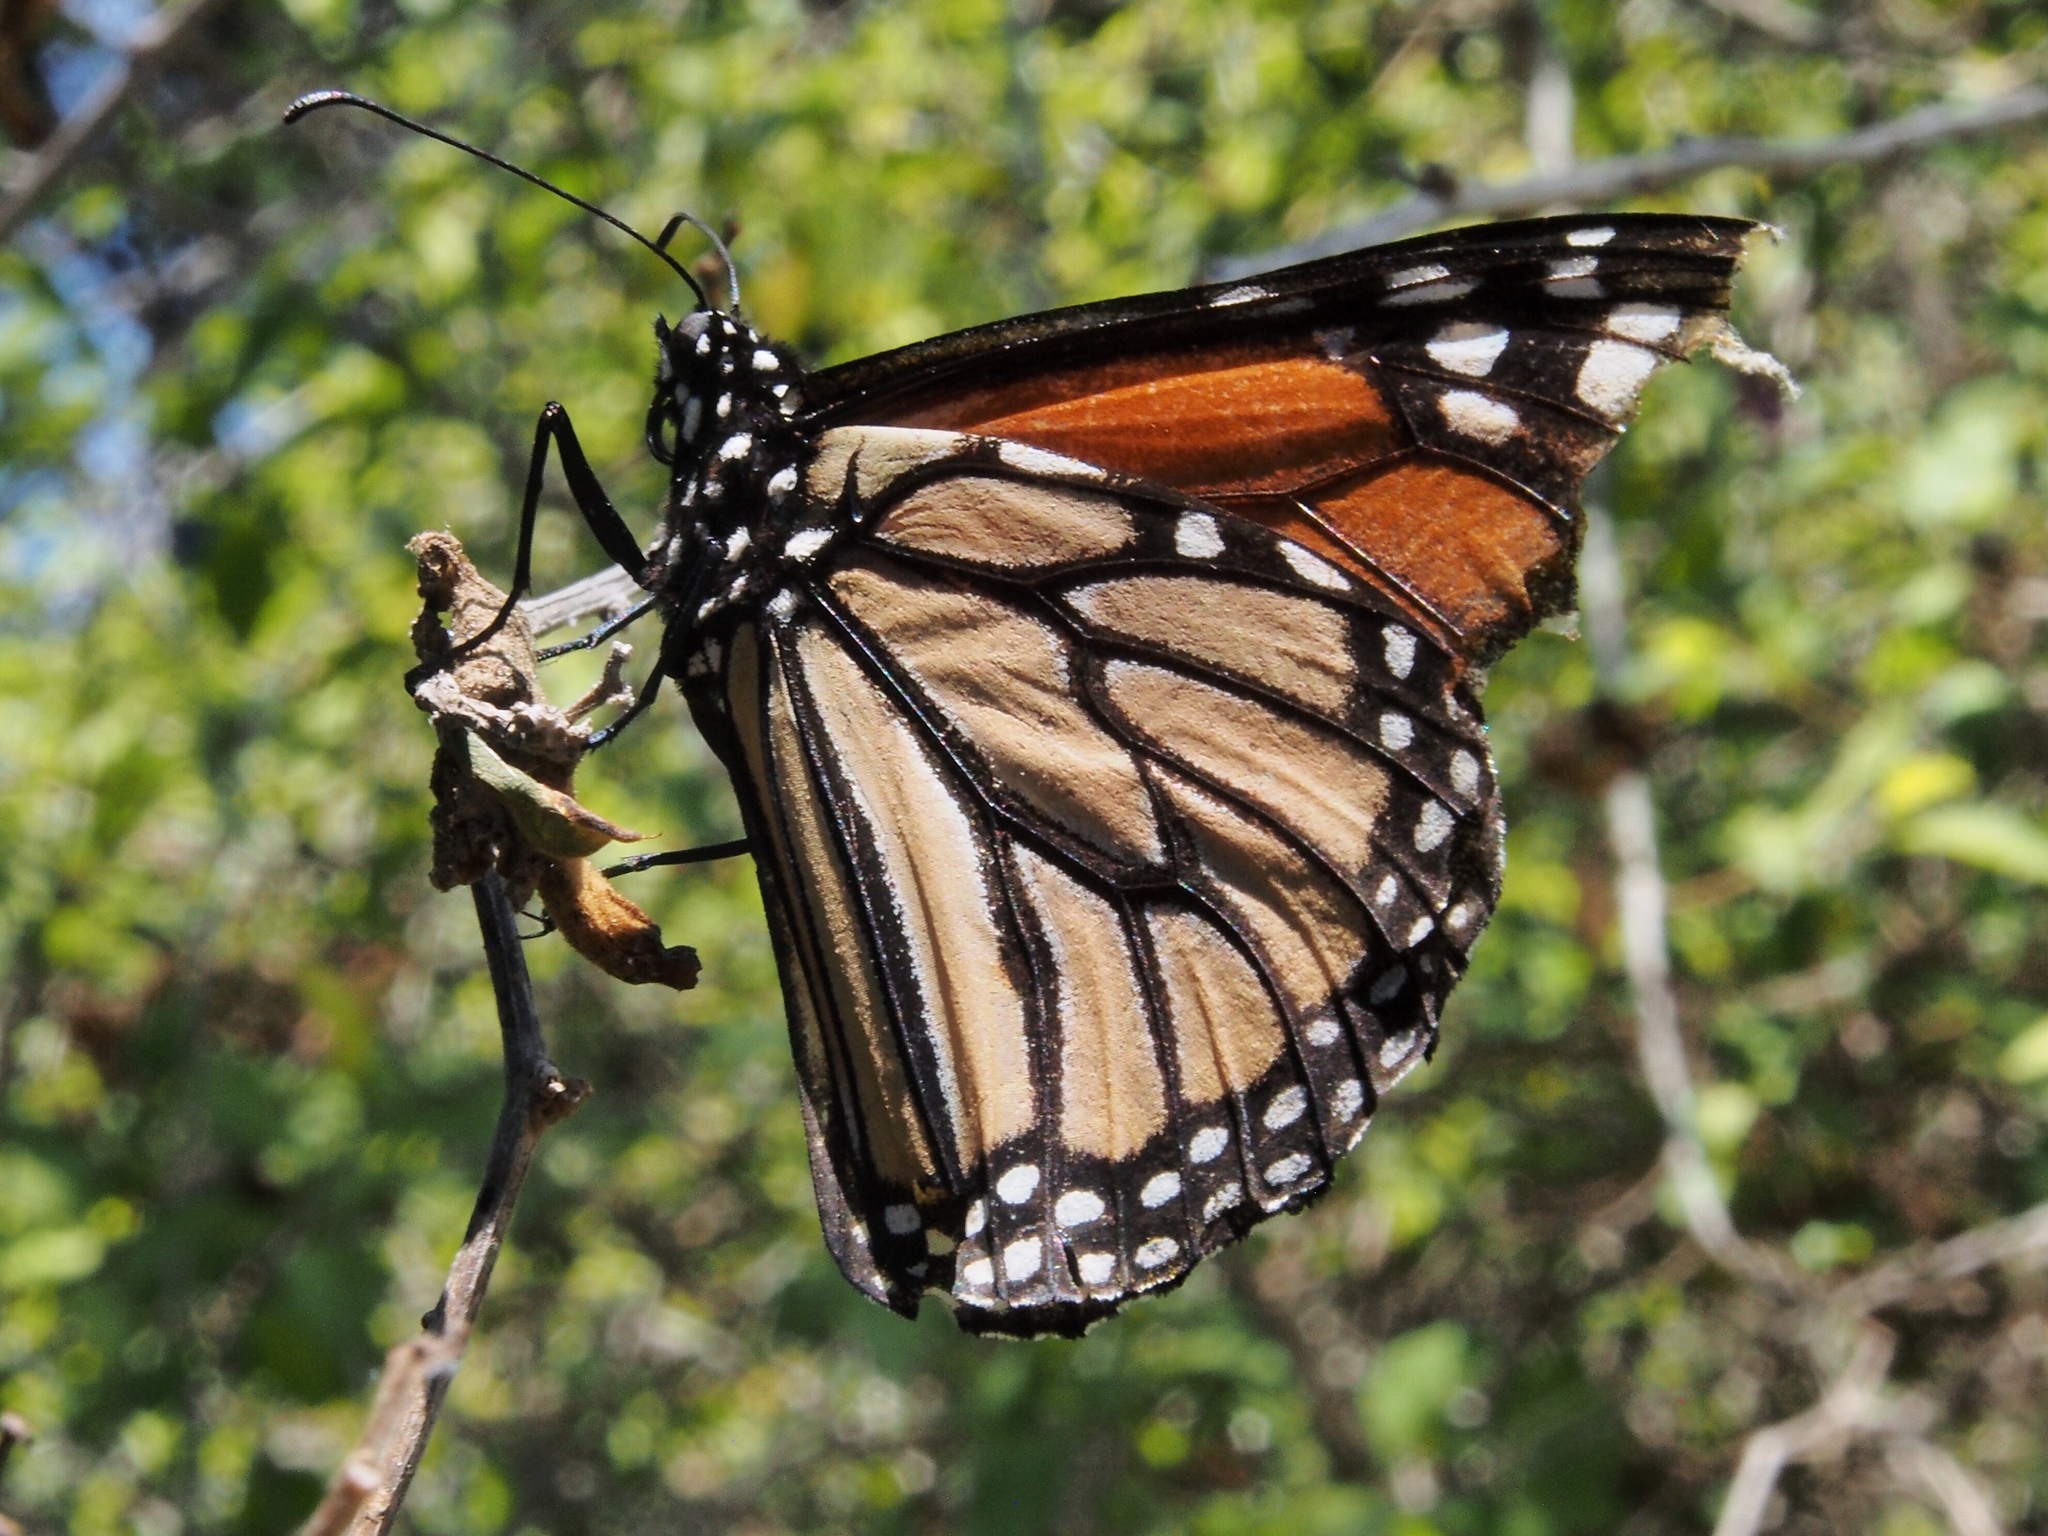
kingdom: Animalia
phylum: Arthropoda
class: Insecta
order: Lepidoptera
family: Nymphalidae
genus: Danaus
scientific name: Danaus plexippus
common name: Monarch
